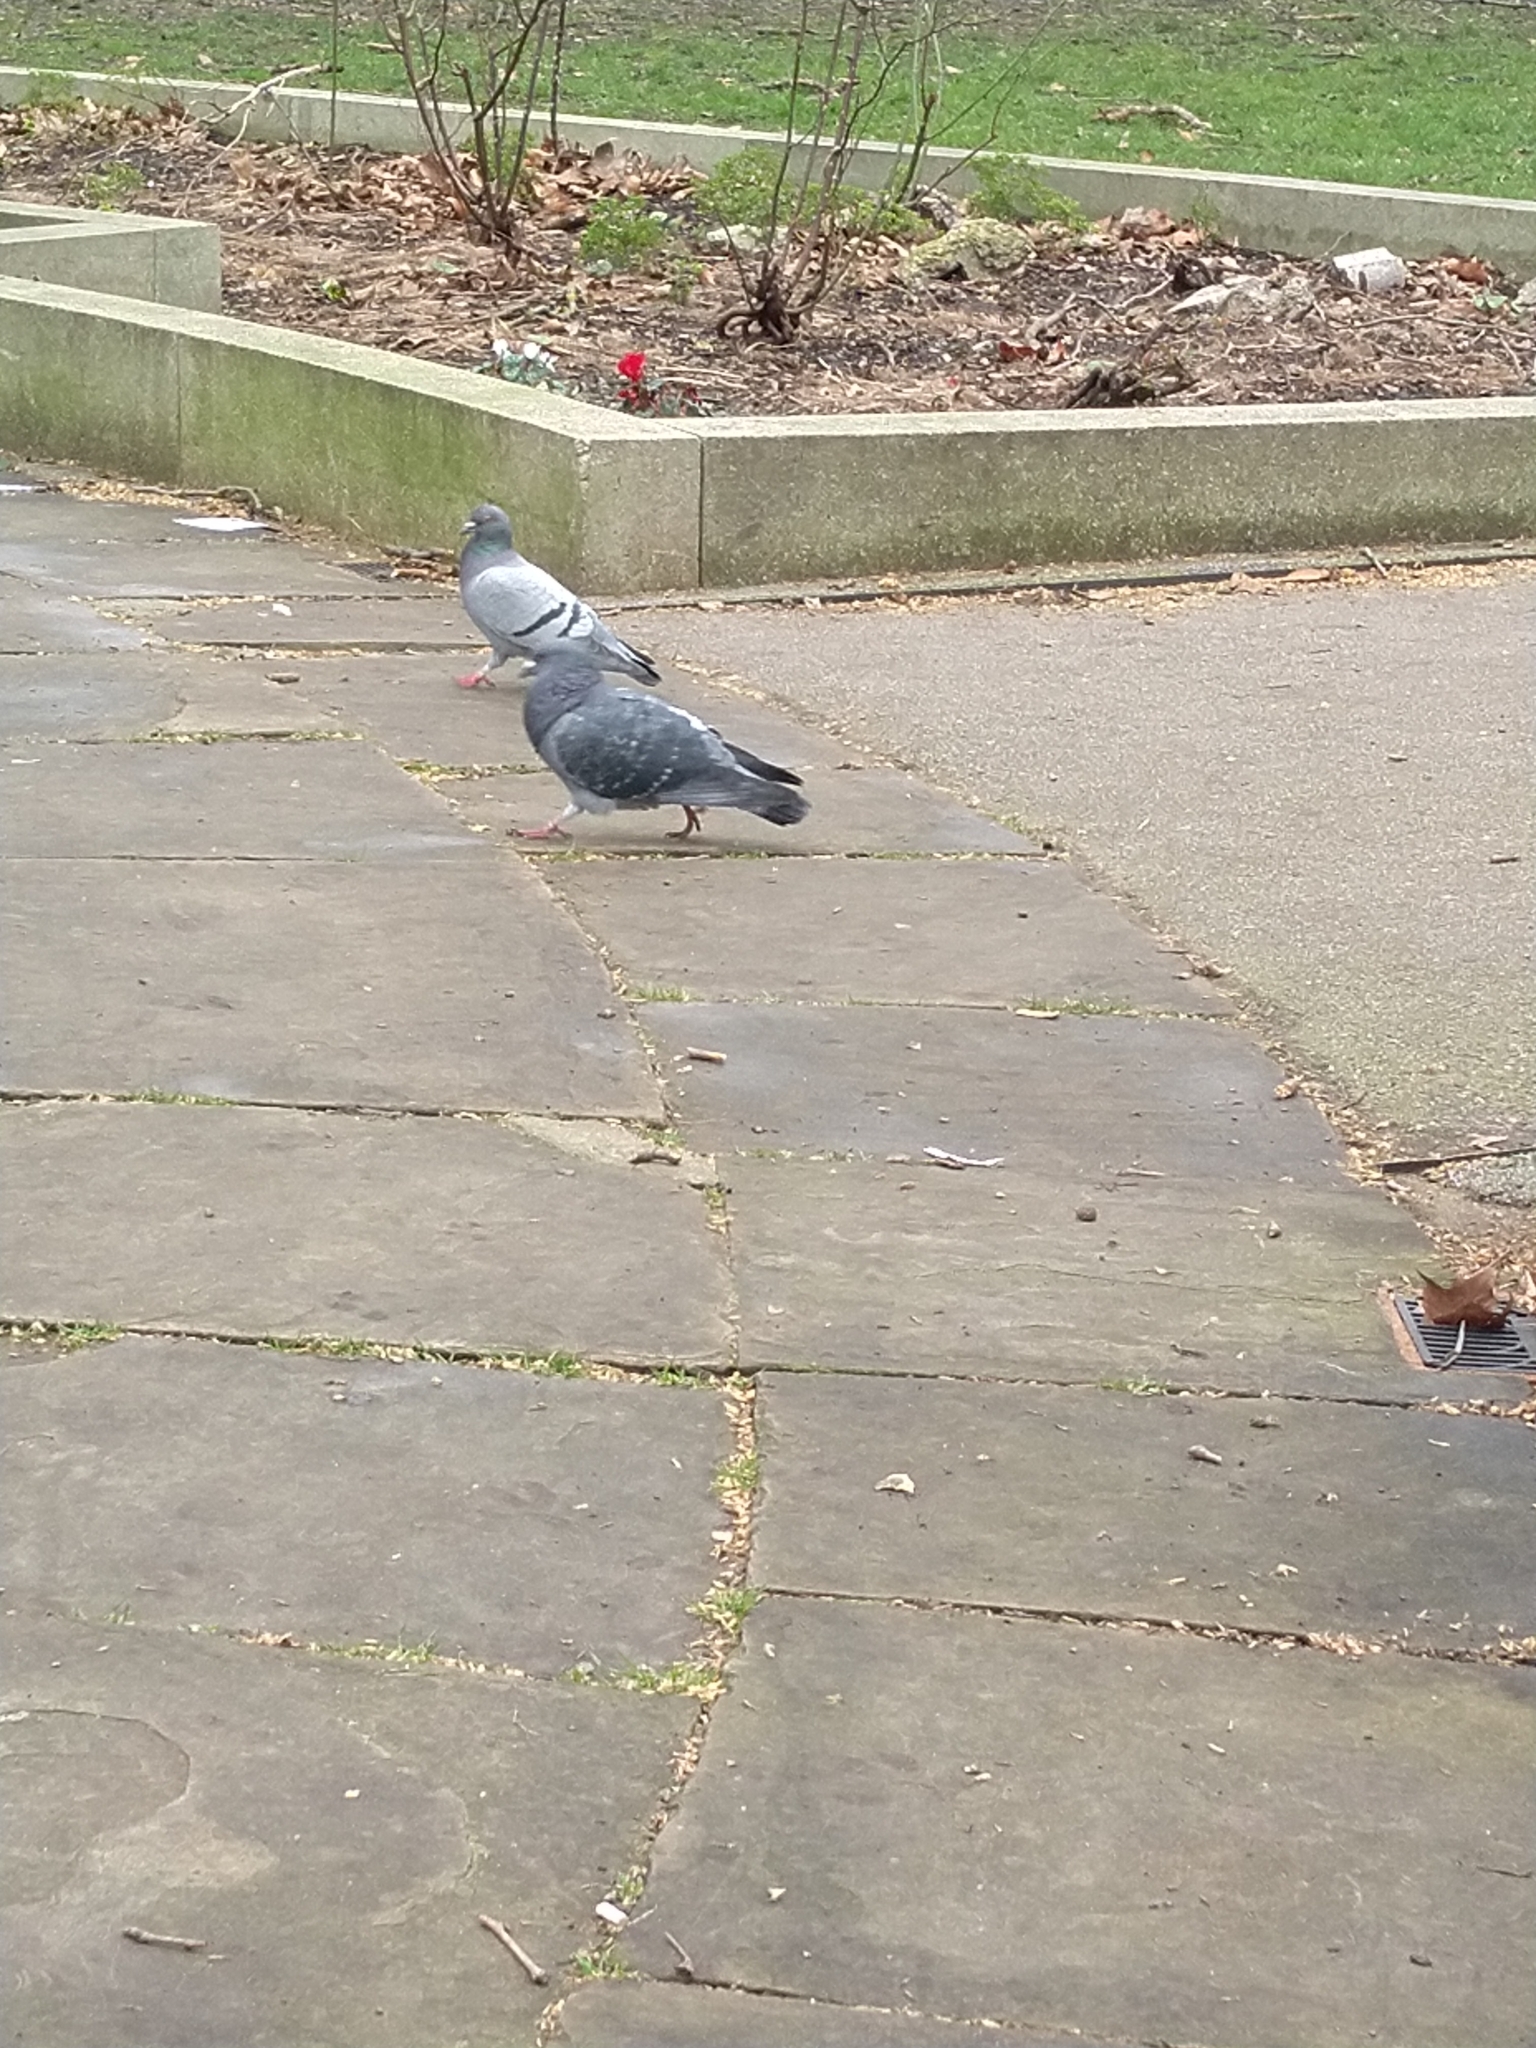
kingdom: Animalia
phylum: Chordata
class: Aves
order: Columbiformes
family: Columbidae
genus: Columba
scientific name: Columba livia
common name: Rock pigeon
